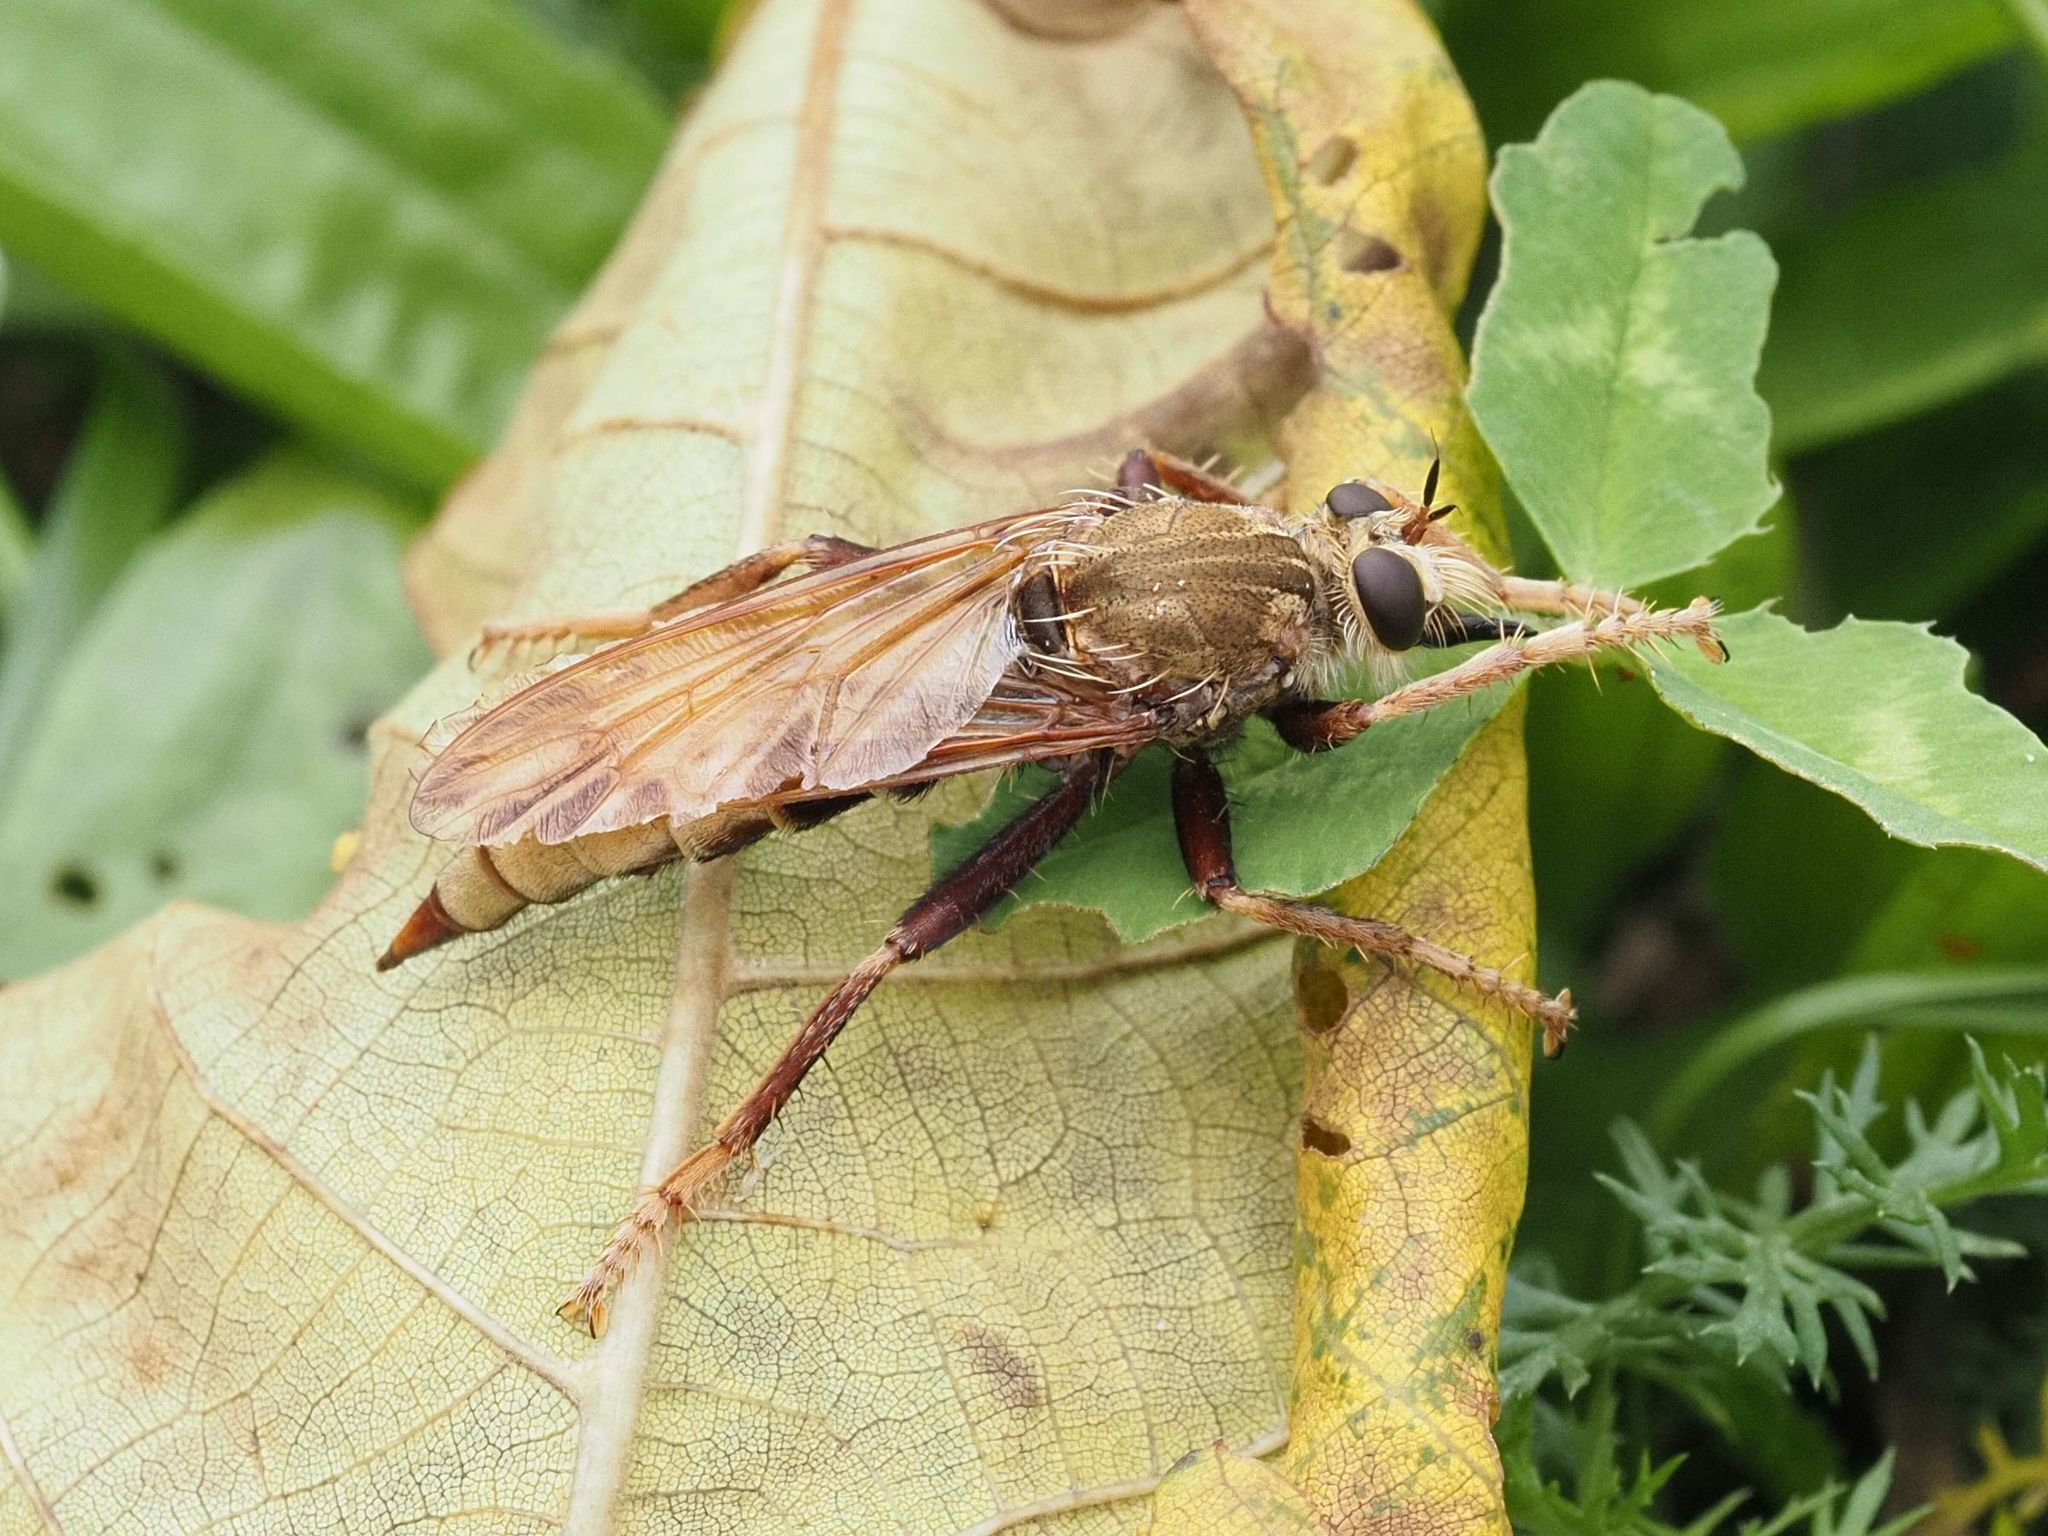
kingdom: Animalia
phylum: Arthropoda
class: Insecta
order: Diptera
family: Asilidae
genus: Asilus
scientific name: Asilus crabroniformis
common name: Hornet robberfly
